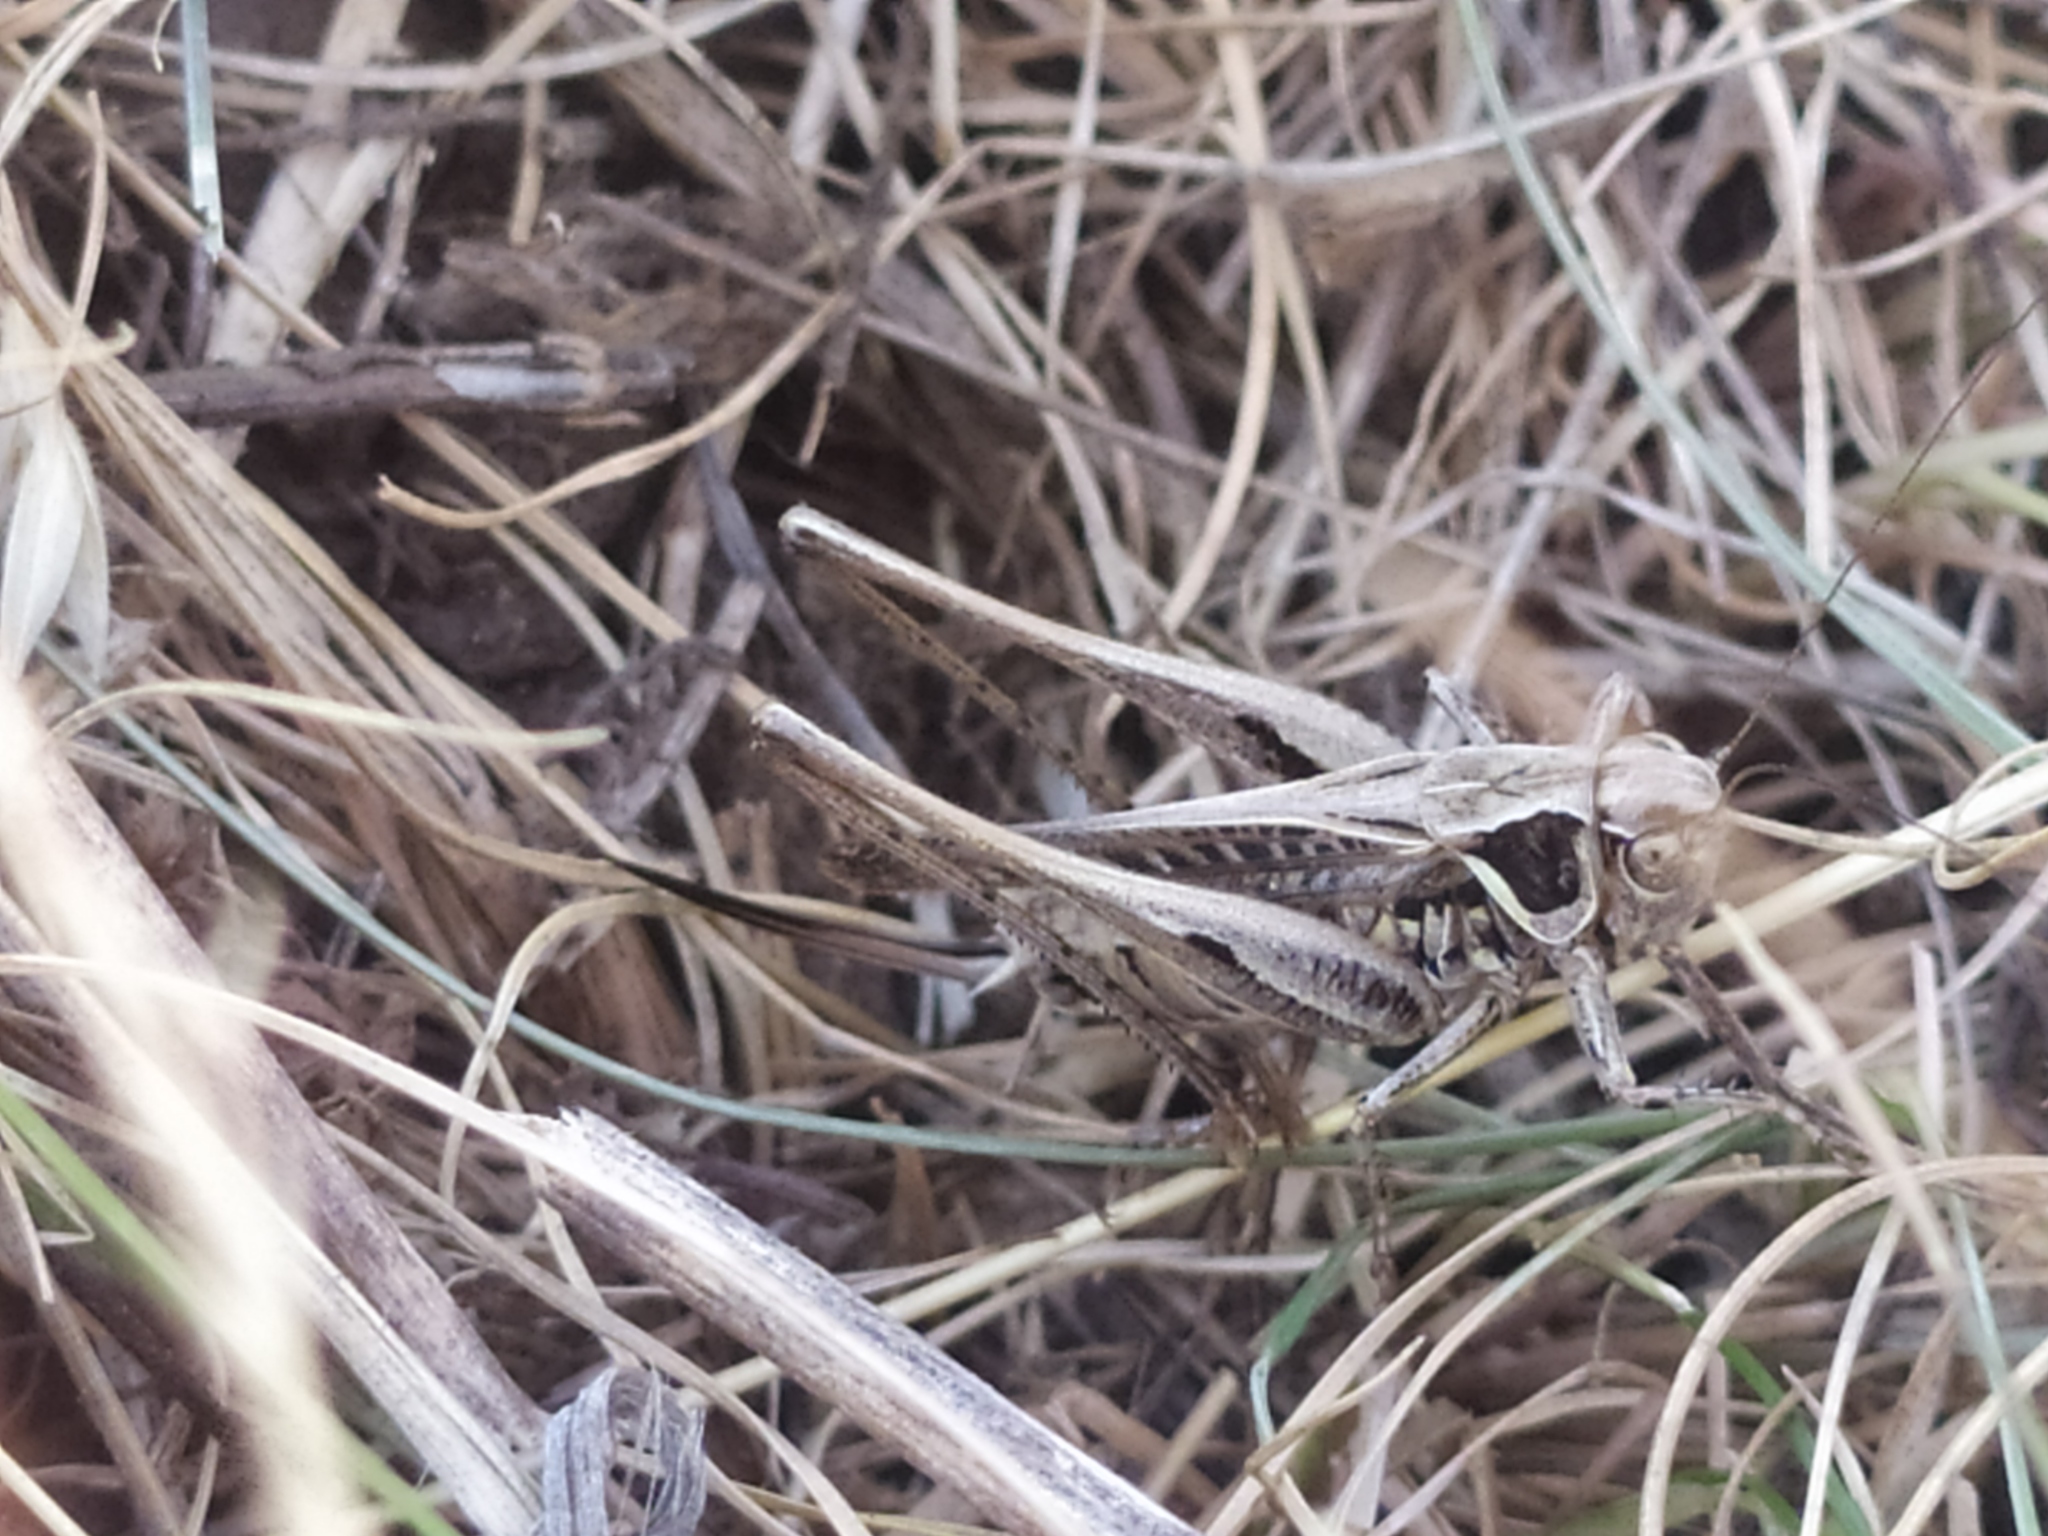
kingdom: Animalia
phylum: Arthropoda
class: Insecta
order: Orthoptera
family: Tettigoniidae
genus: Montana
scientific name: Montana stricta
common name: Italian bush-cricket
